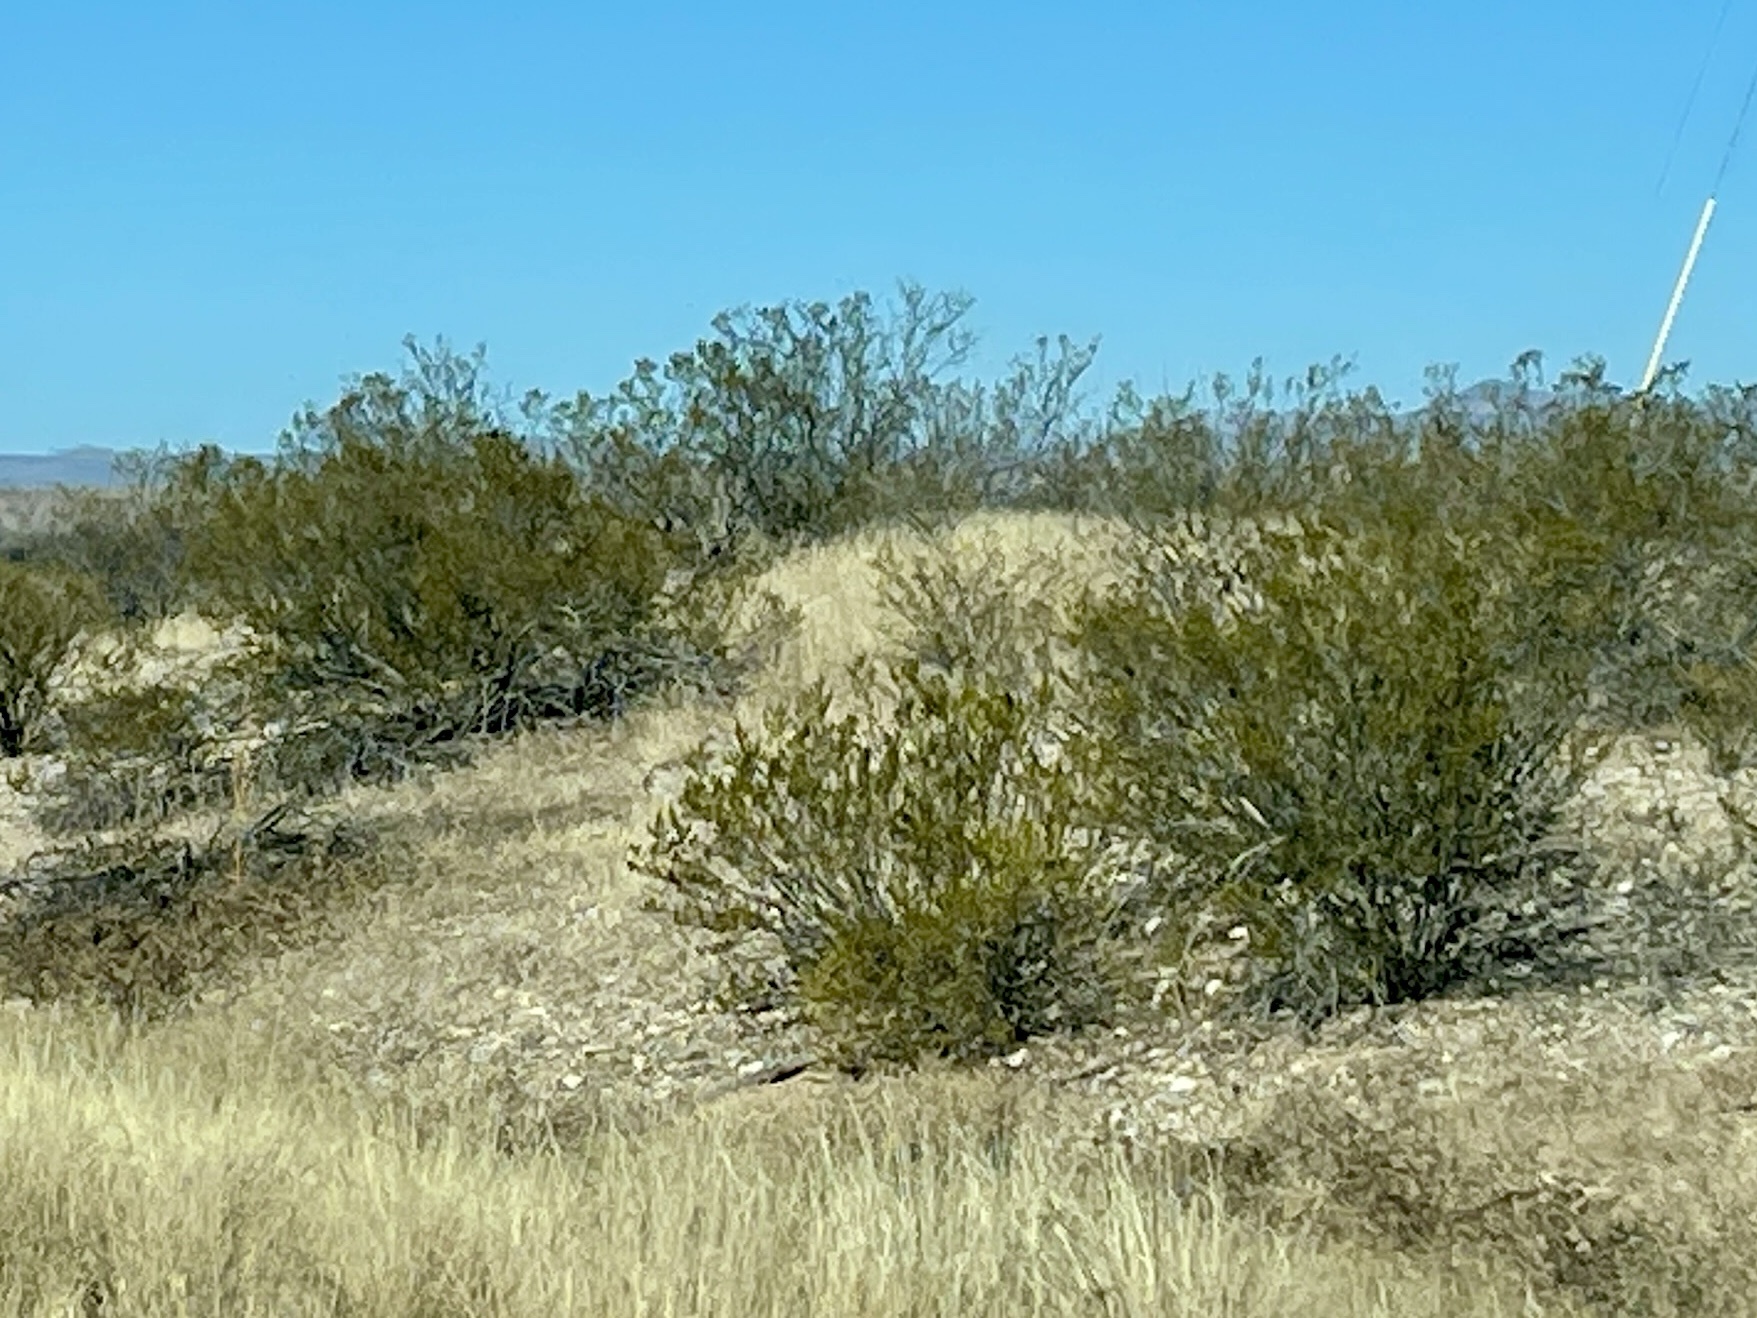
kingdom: Plantae
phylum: Tracheophyta
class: Magnoliopsida
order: Zygophyllales
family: Zygophyllaceae
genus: Larrea
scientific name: Larrea tridentata
